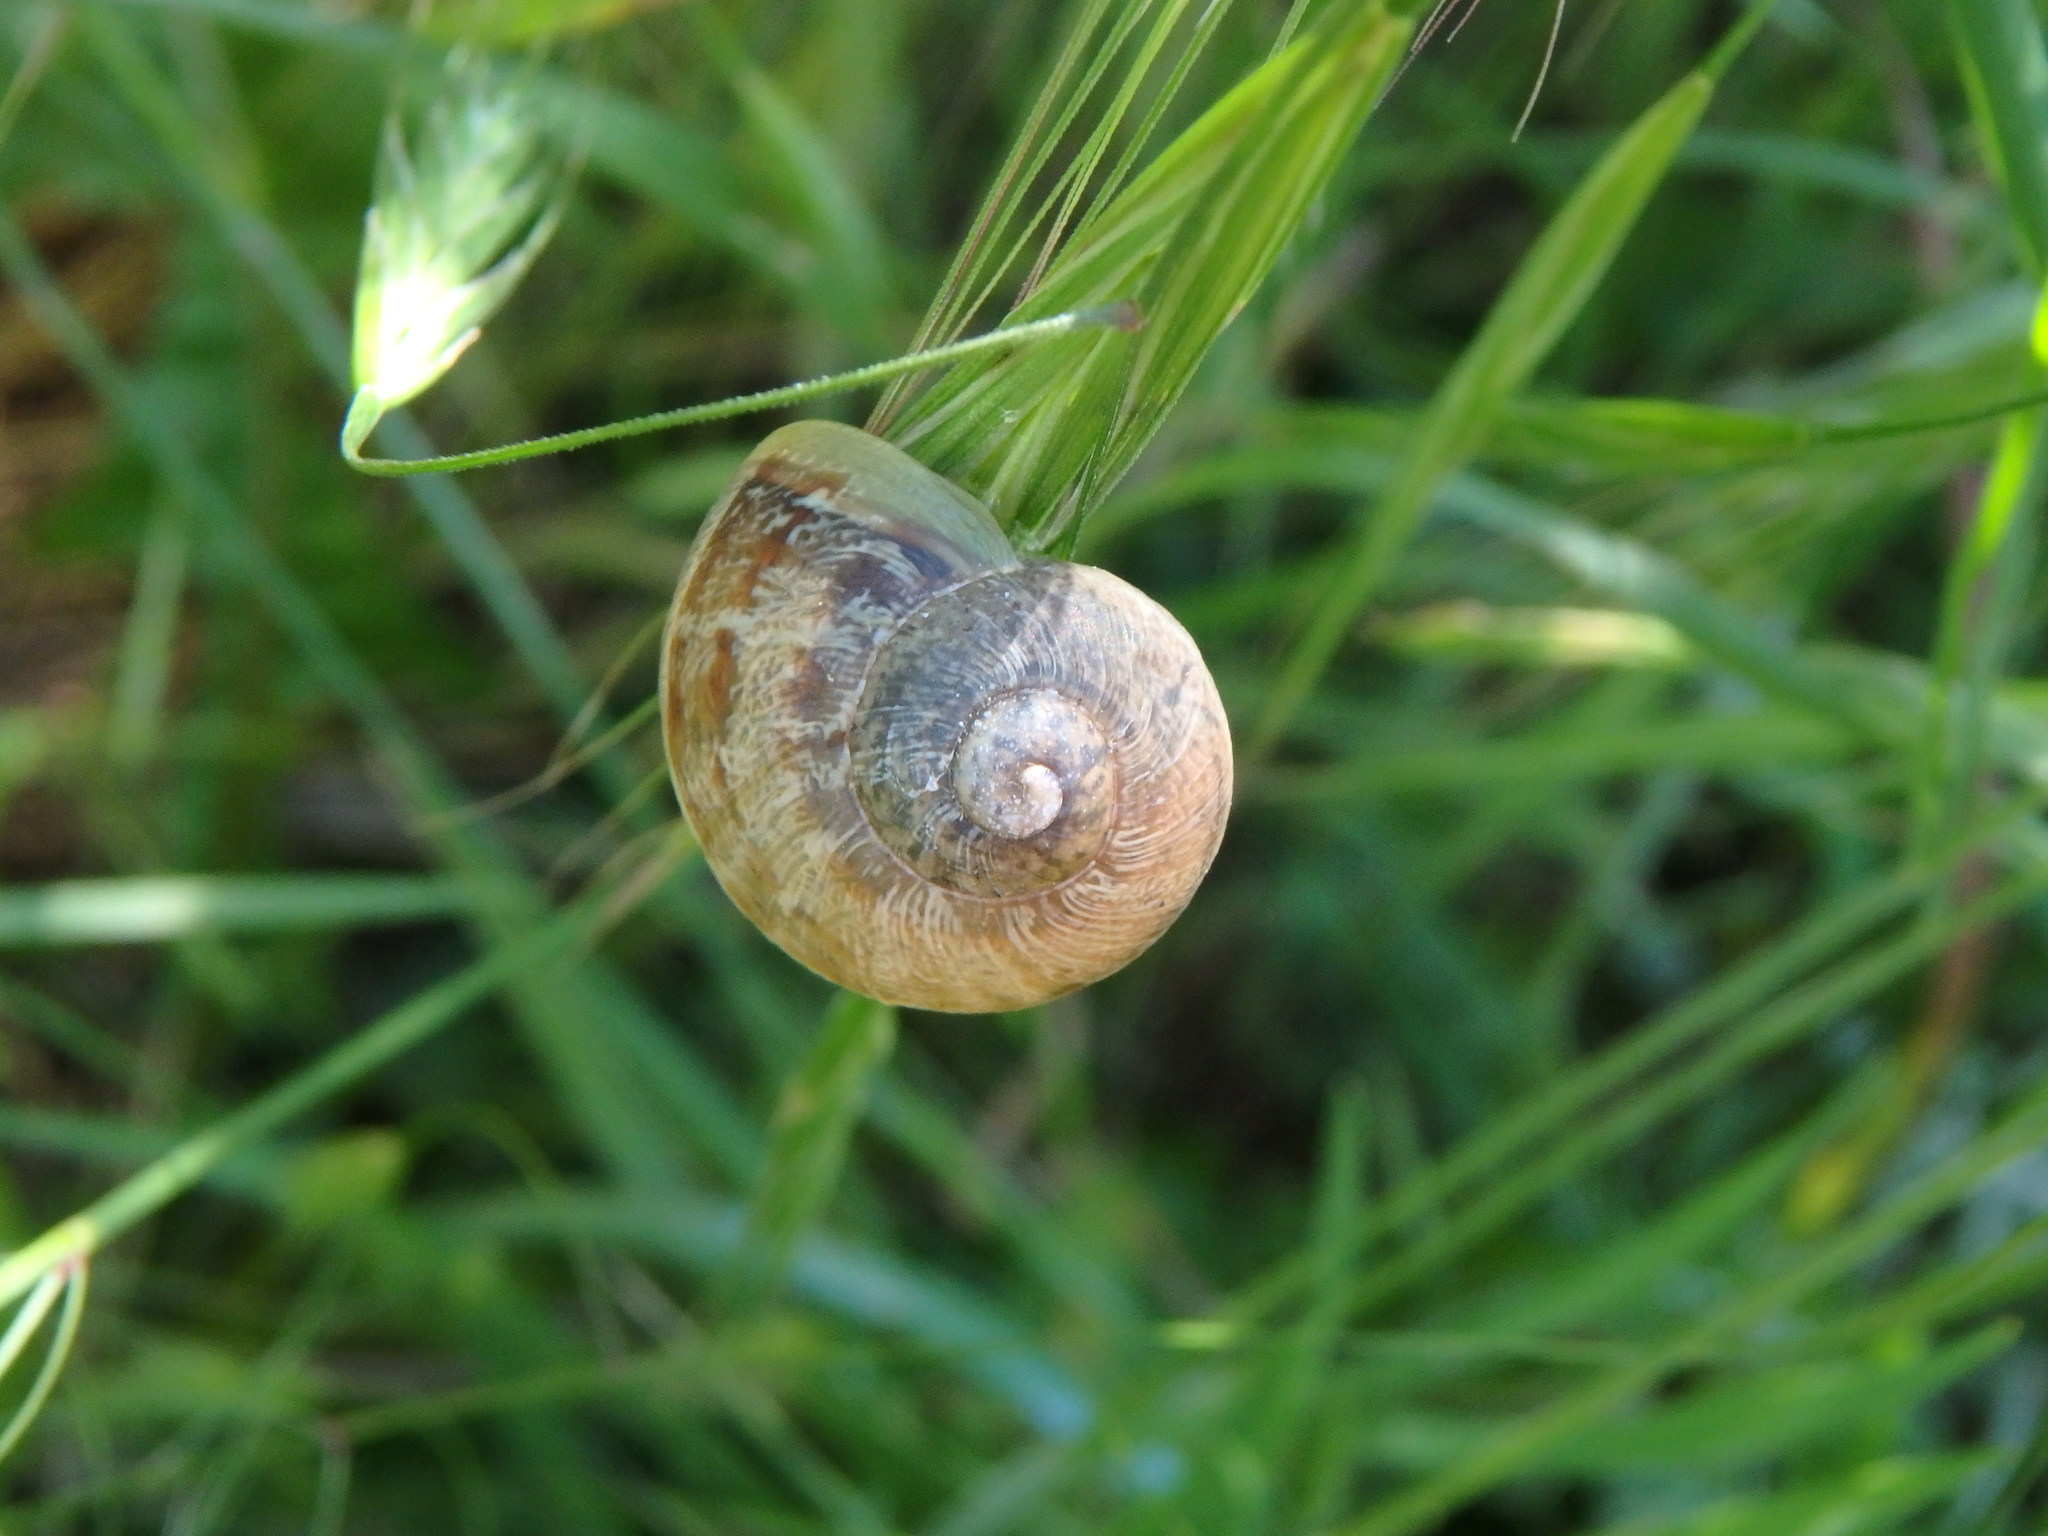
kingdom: Animalia
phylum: Mollusca
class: Gastropoda
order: Stylommatophora
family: Helicidae
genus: Cornu
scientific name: Cornu aspersum
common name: Brown garden snail
